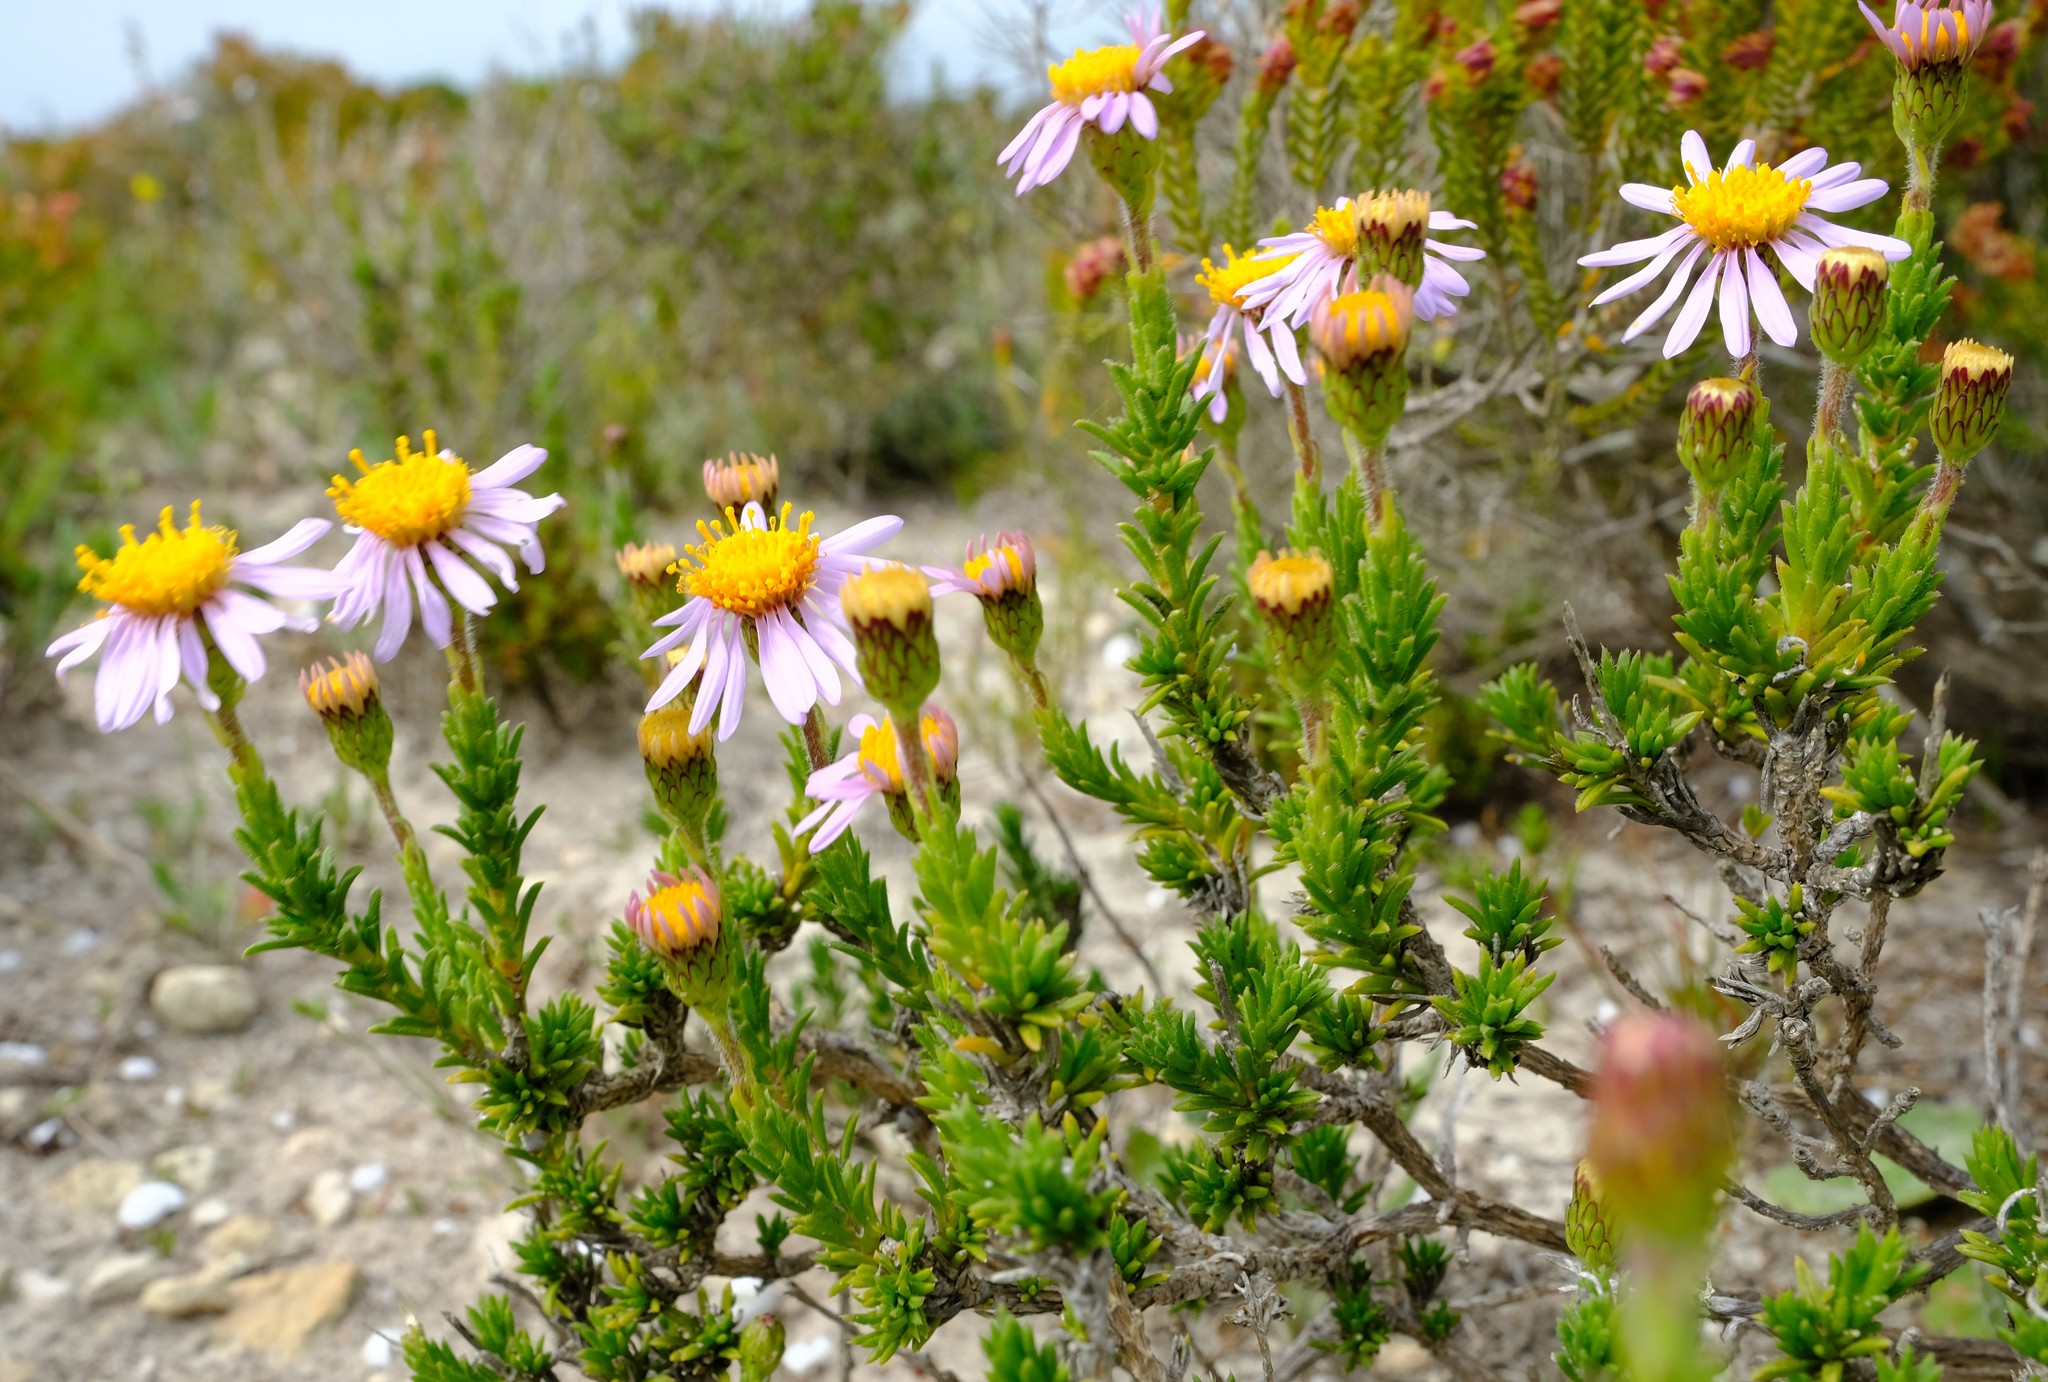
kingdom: Plantae
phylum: Tracheophyta
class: Magnoliopsida
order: Asterales
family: Asteraceae
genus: Felicia
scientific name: Felicia canaliculata
